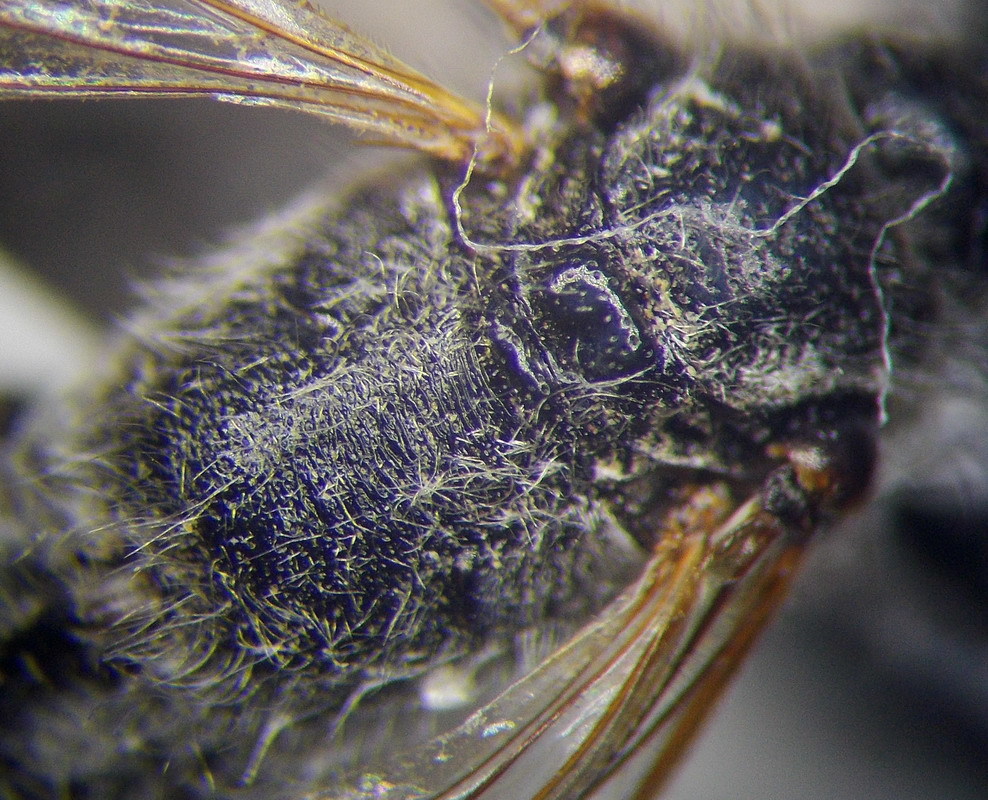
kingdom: Animalia
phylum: Arthropoda
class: Insecta
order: Hymenoptera
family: Sphecidae
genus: Prionyx
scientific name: Prionyx kirbii
